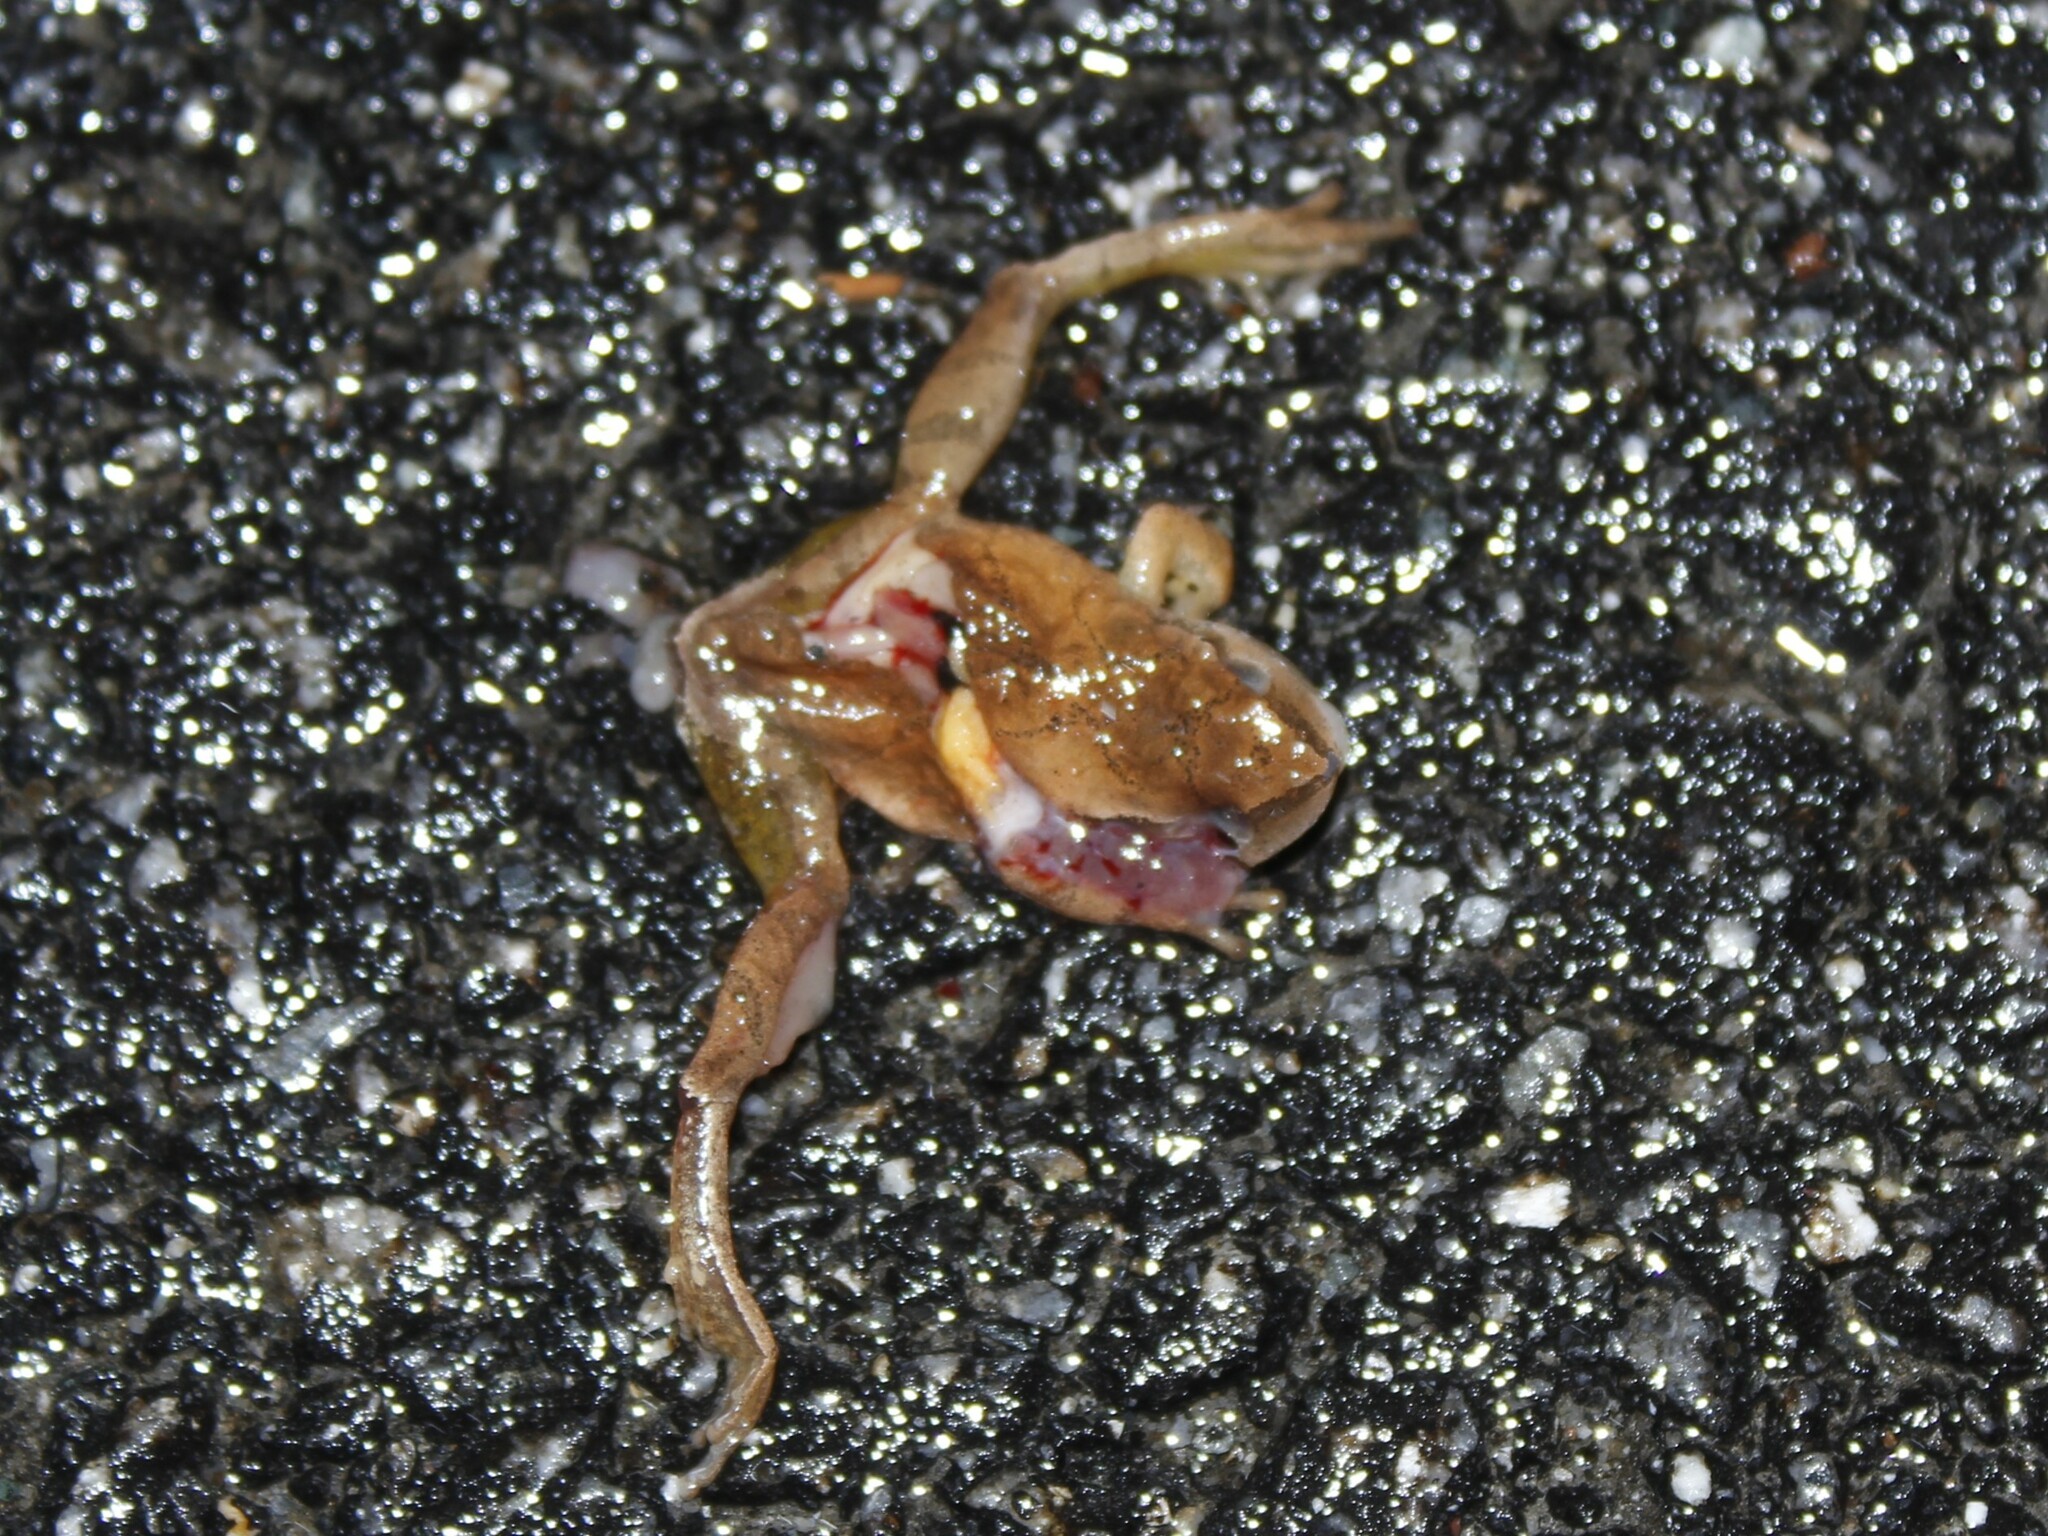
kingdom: Animalia
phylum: Chordata
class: Amphibia
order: Anura
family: Hylidae
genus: Pseudacris
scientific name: Pseudacris crucifer
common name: Spring peeper
